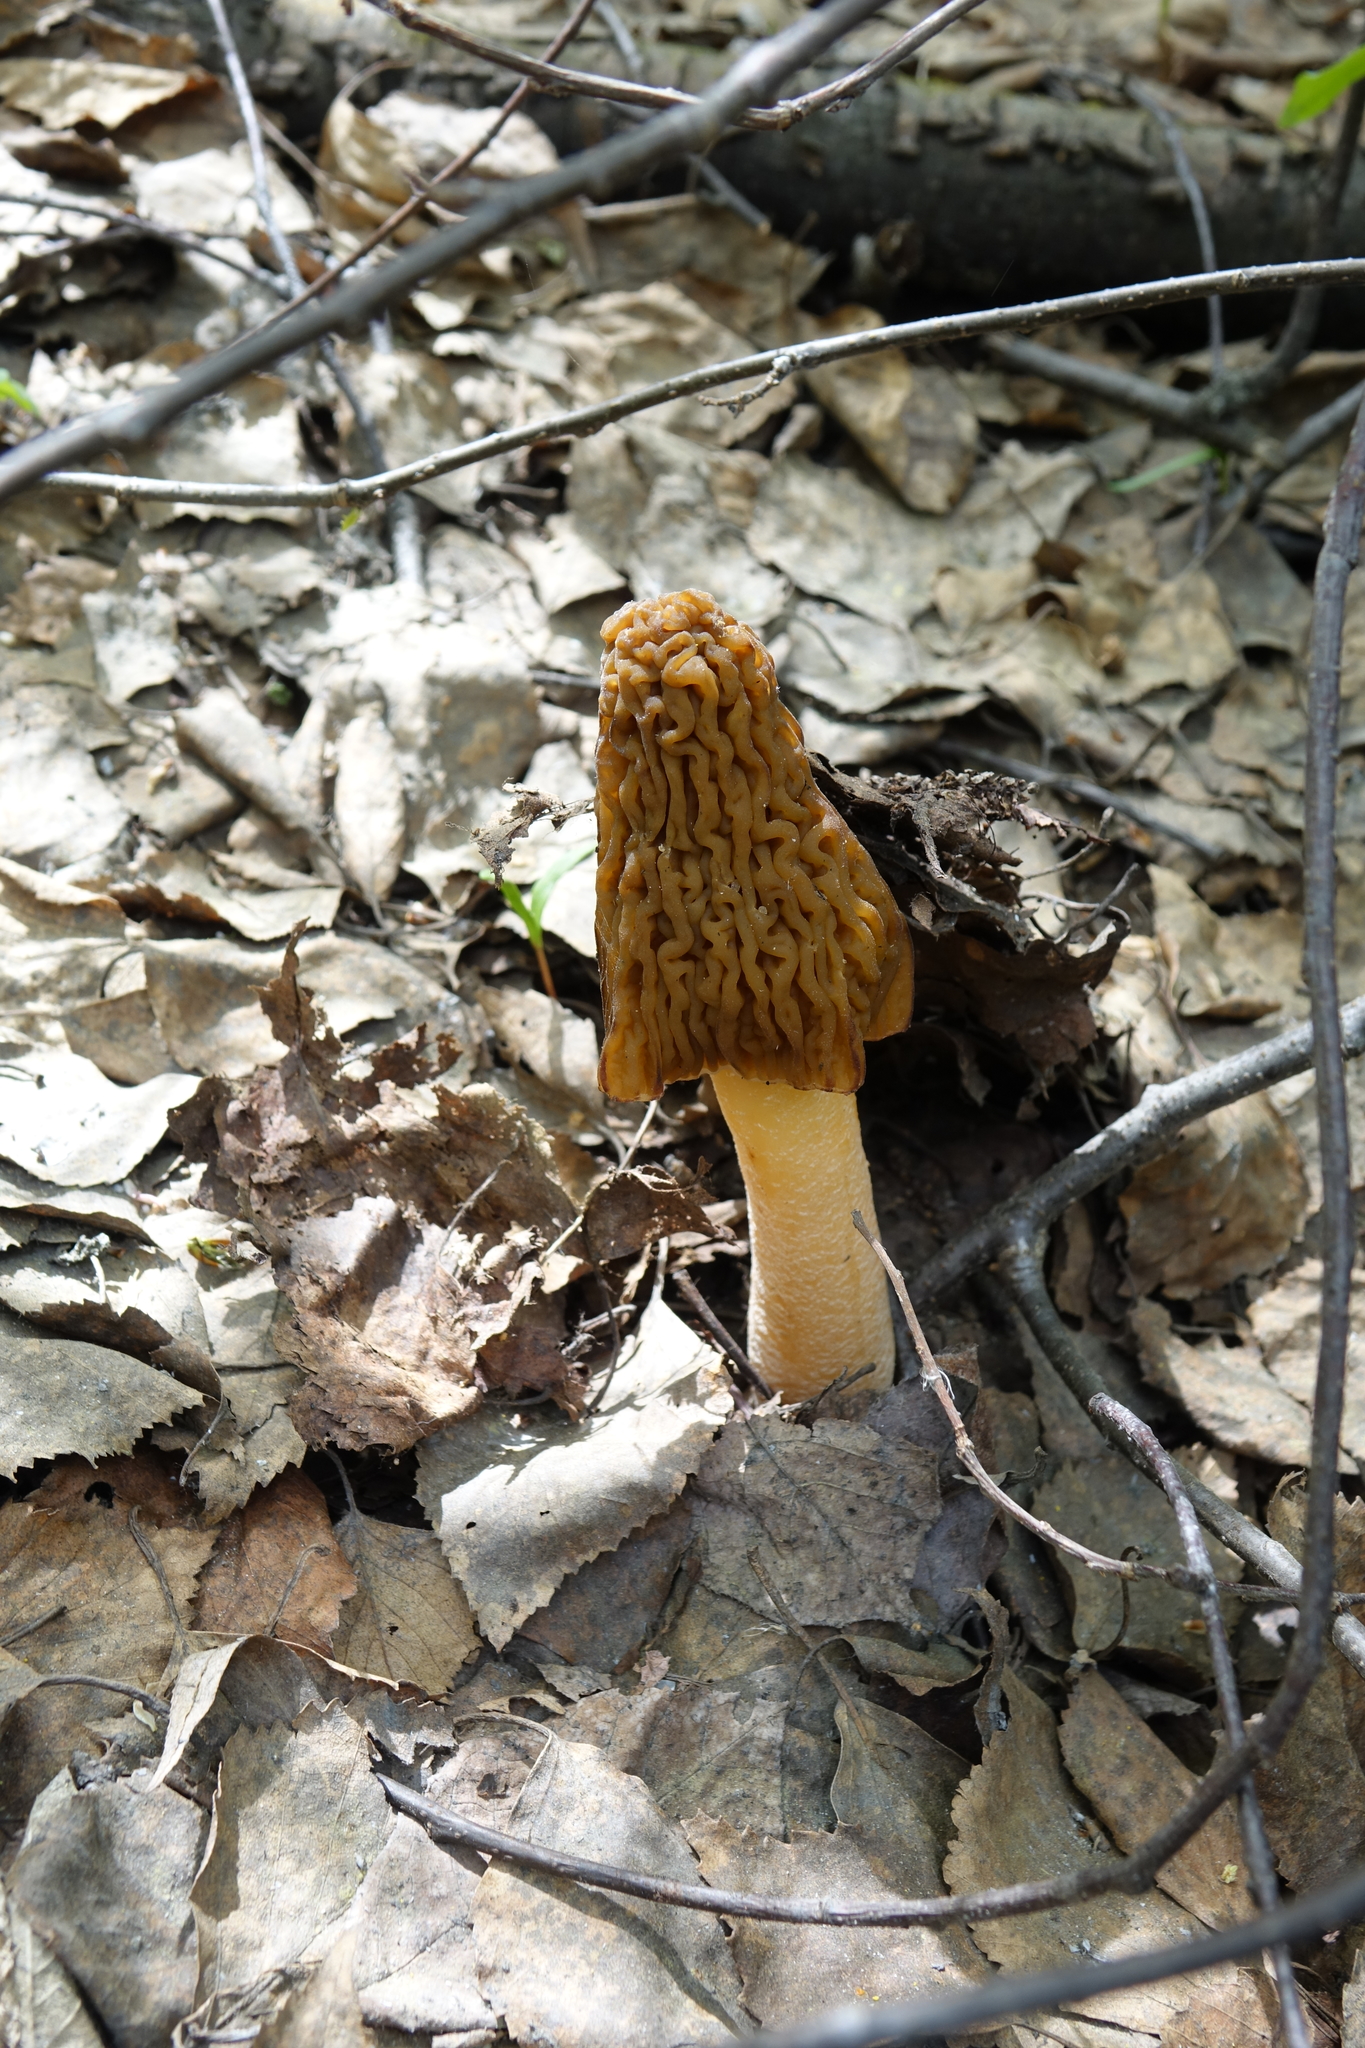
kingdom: Fungi
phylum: Ascomycota
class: Pezizomycetes
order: Pezizales
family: Morchellaceae
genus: Verpa
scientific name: Verpa bohemica
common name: Wrinkled thimble morel
